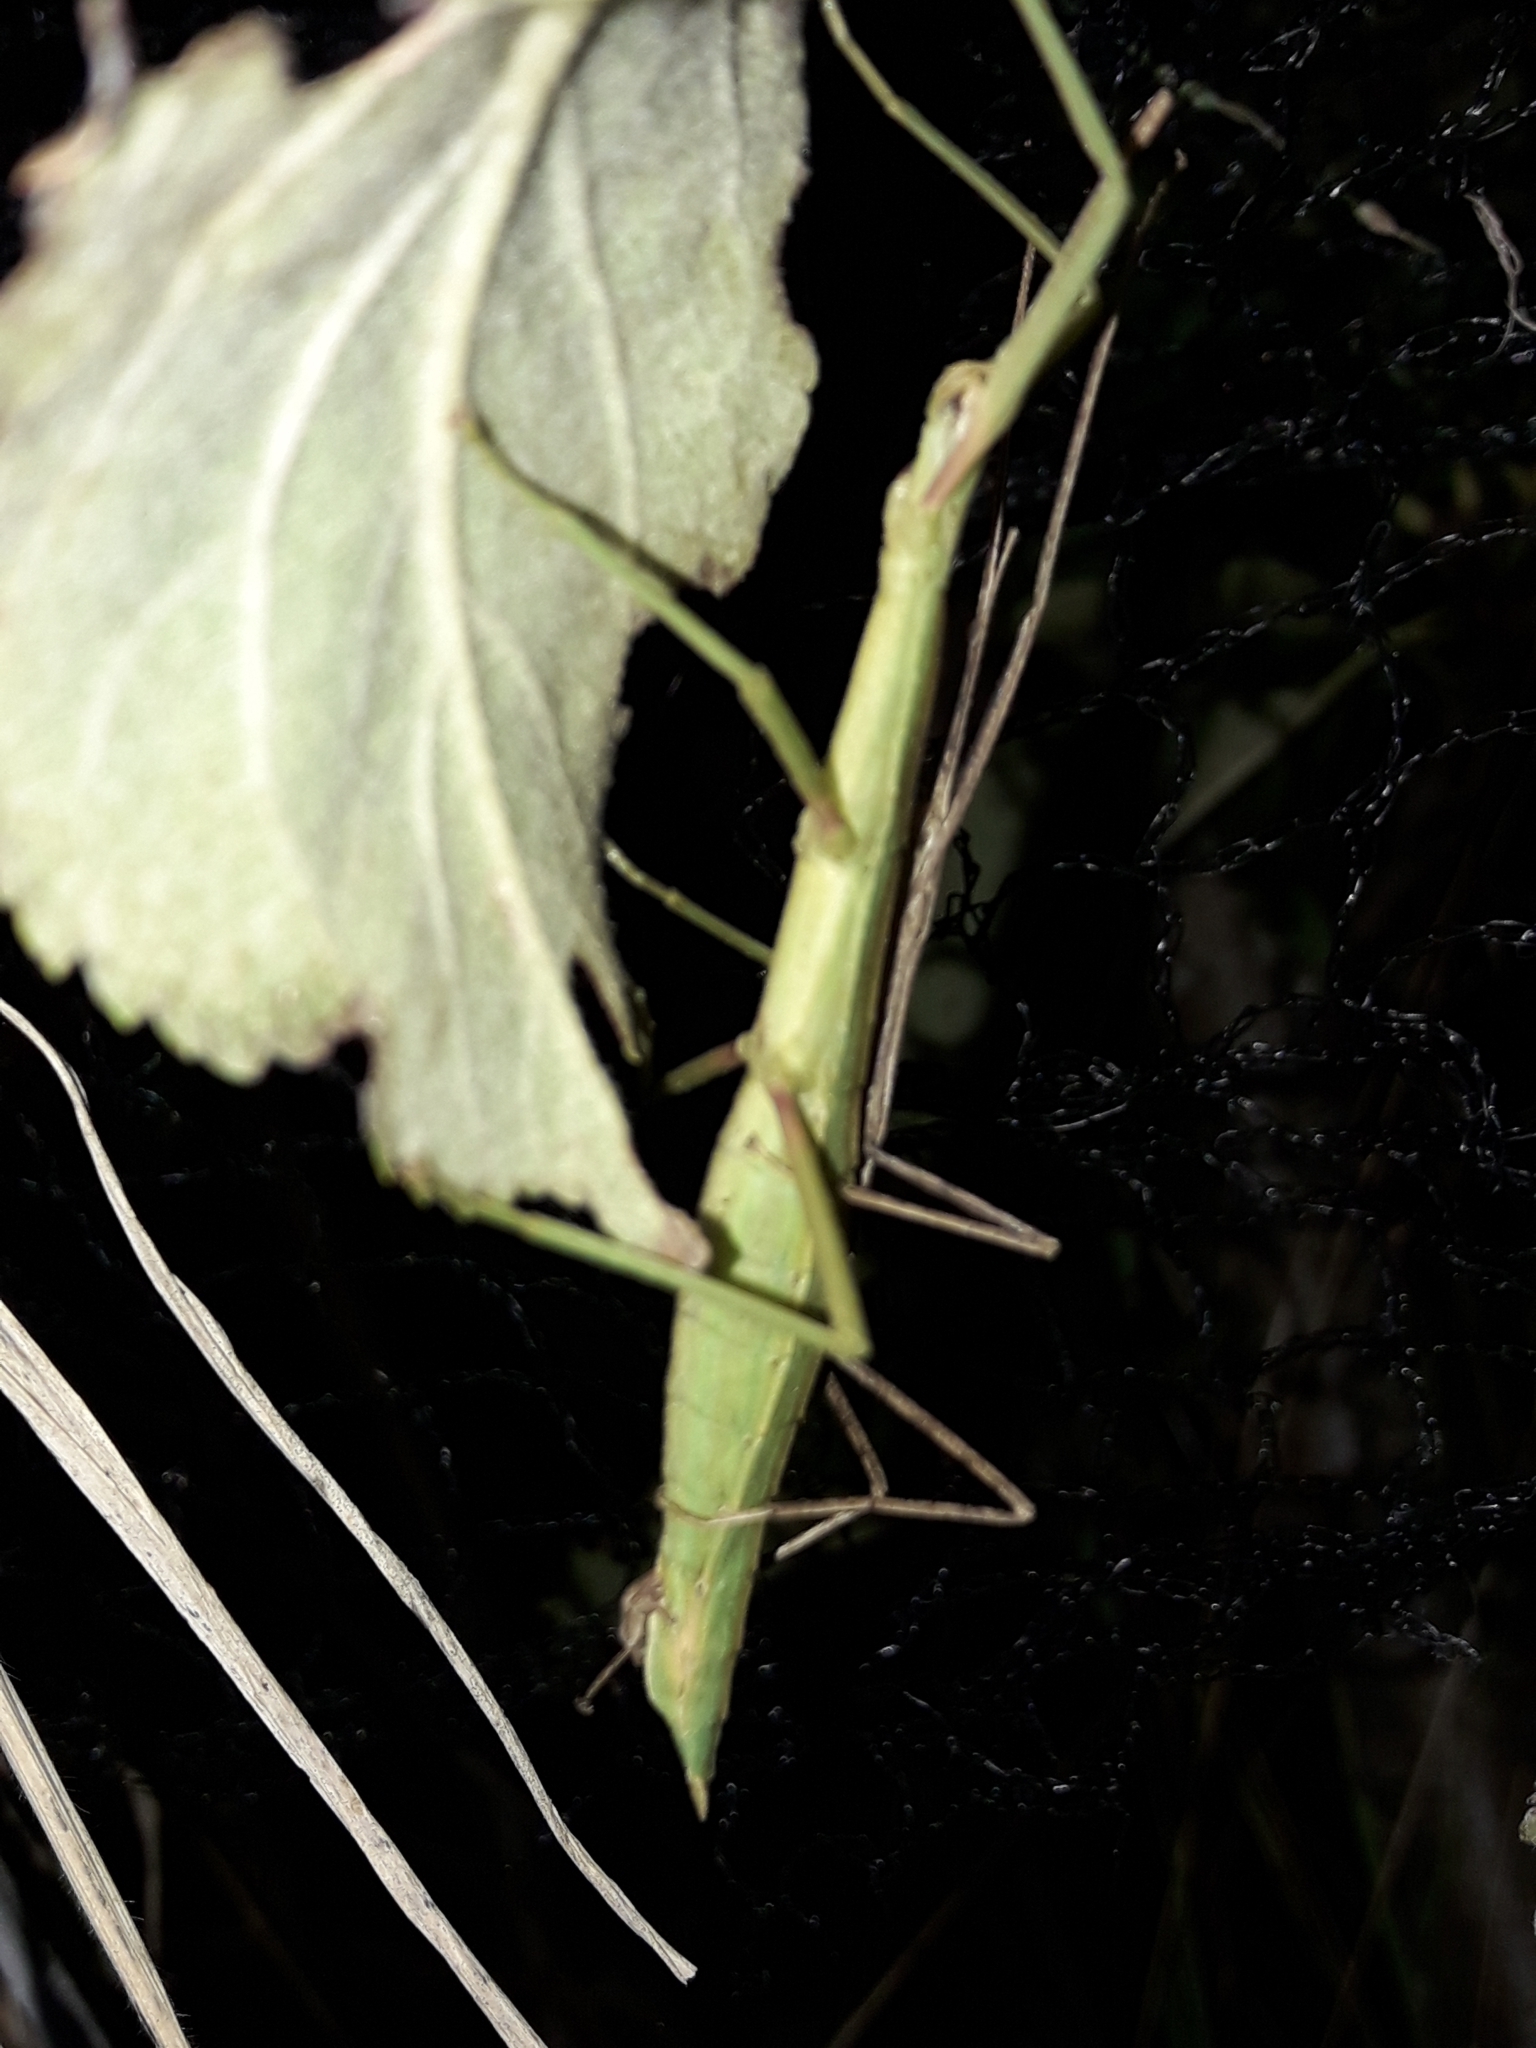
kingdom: Animalia
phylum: Arthropoda
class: Insecta
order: Phasmida
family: Phasmatidae
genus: Tectarchus
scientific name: Tectarchus huttoni
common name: The common ridge-backed stick insect
